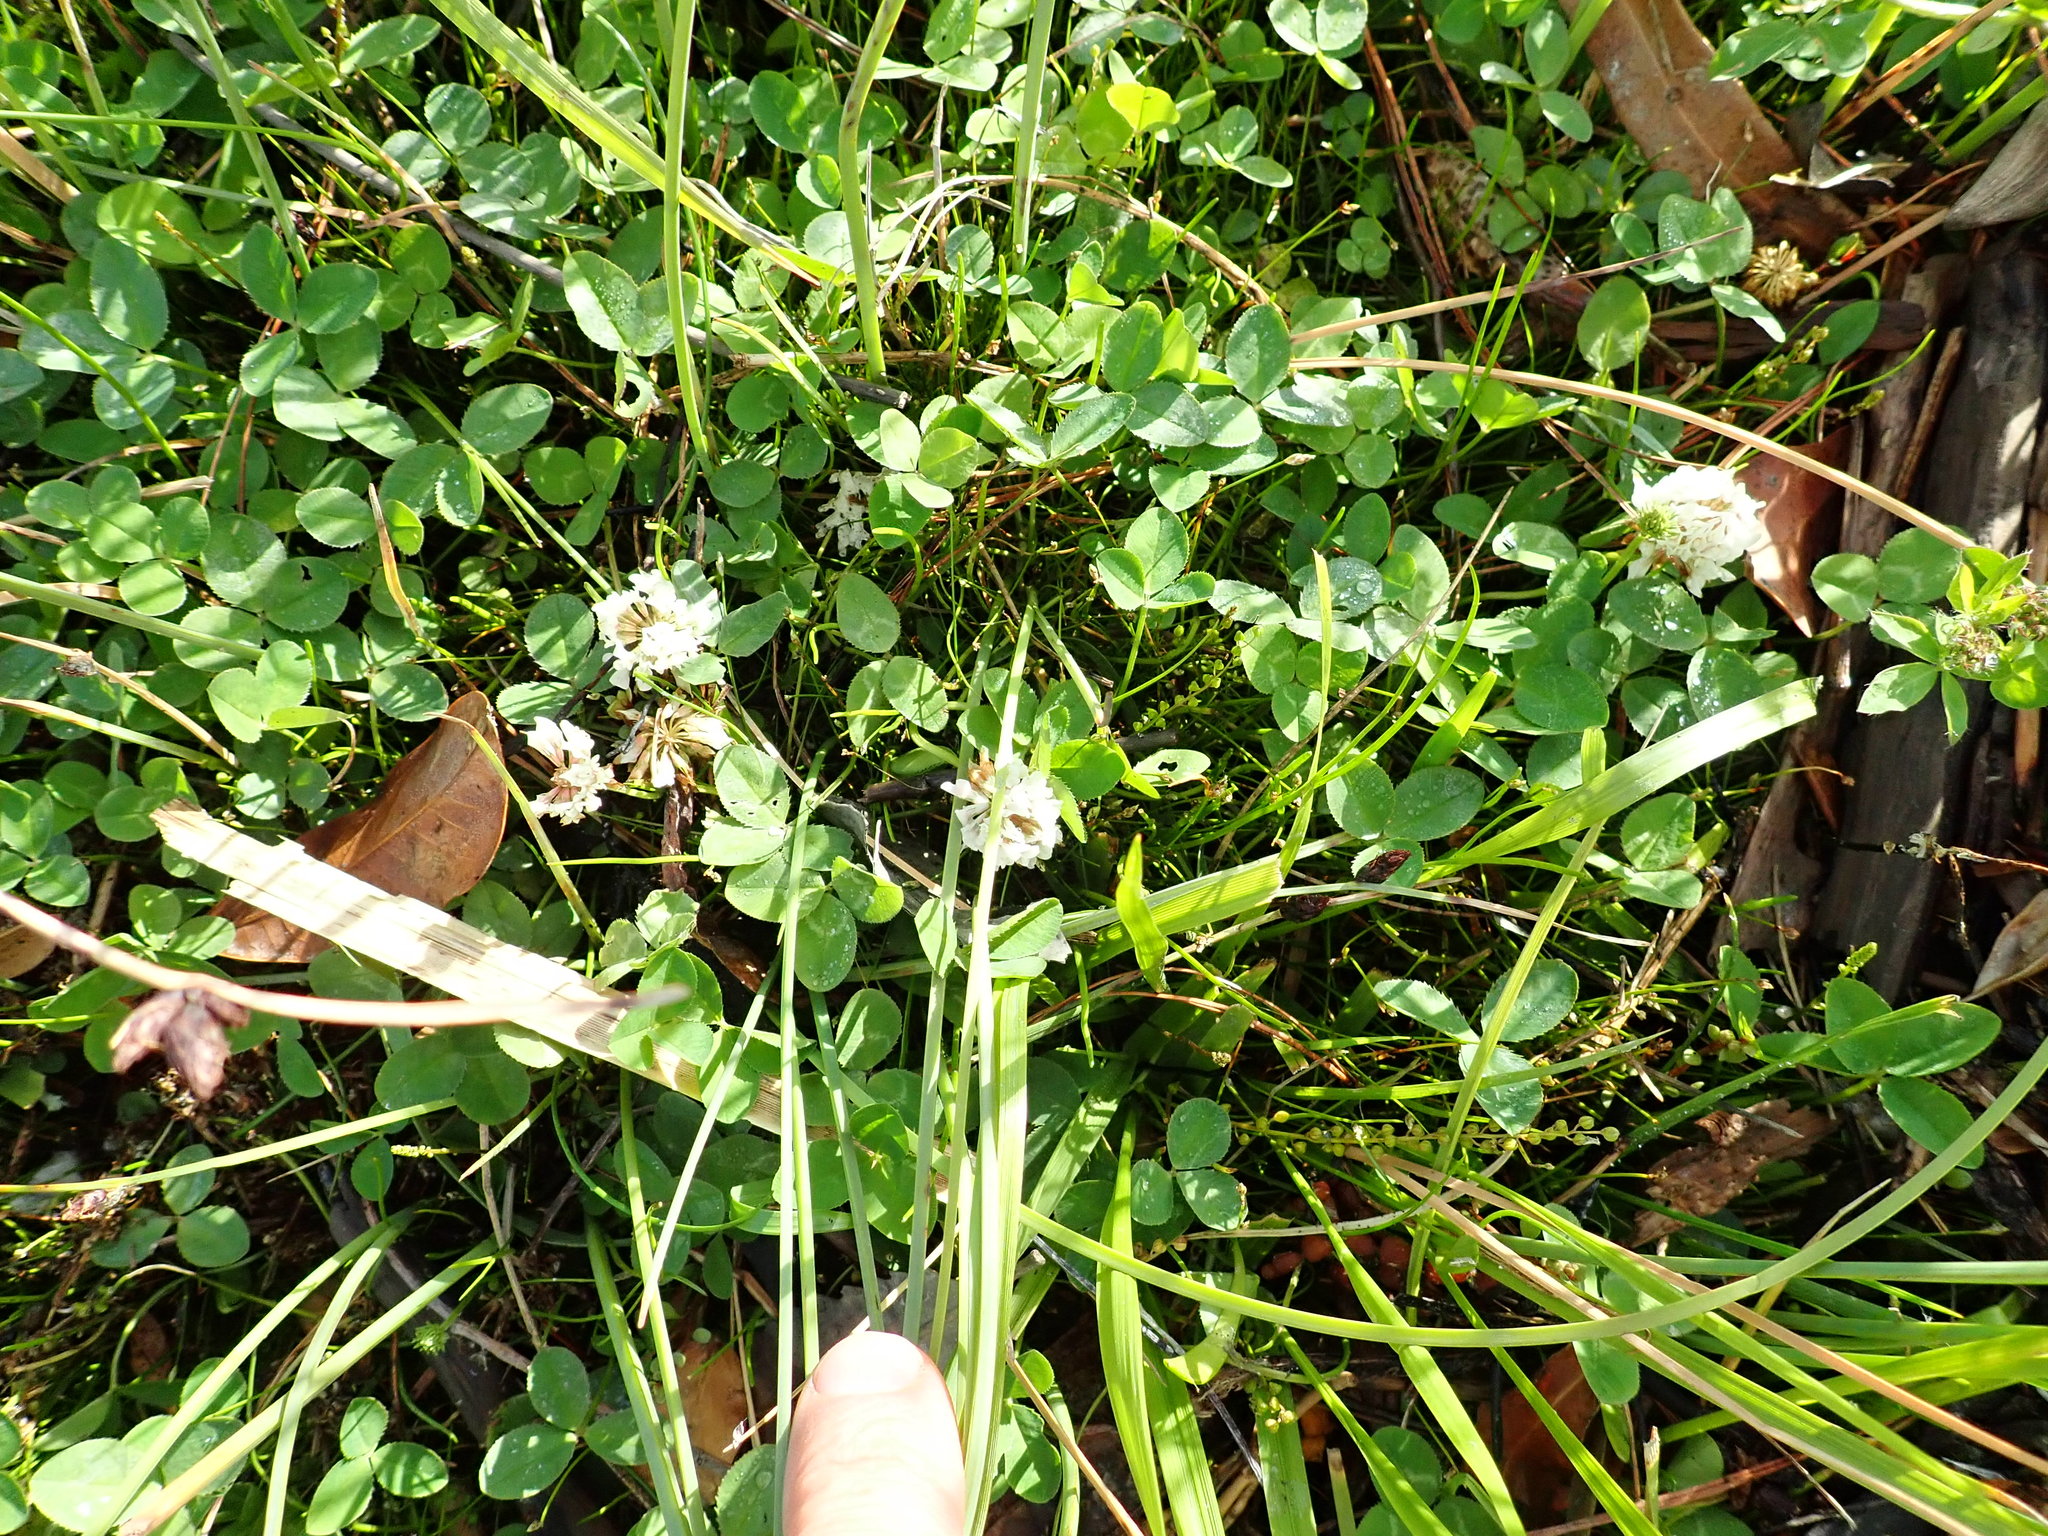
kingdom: Plantae
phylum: Tracheophyta
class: Magnoliopsida
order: Fabales
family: Fabaceae
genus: Trifolium
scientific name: Trifolium repens
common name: White clover
